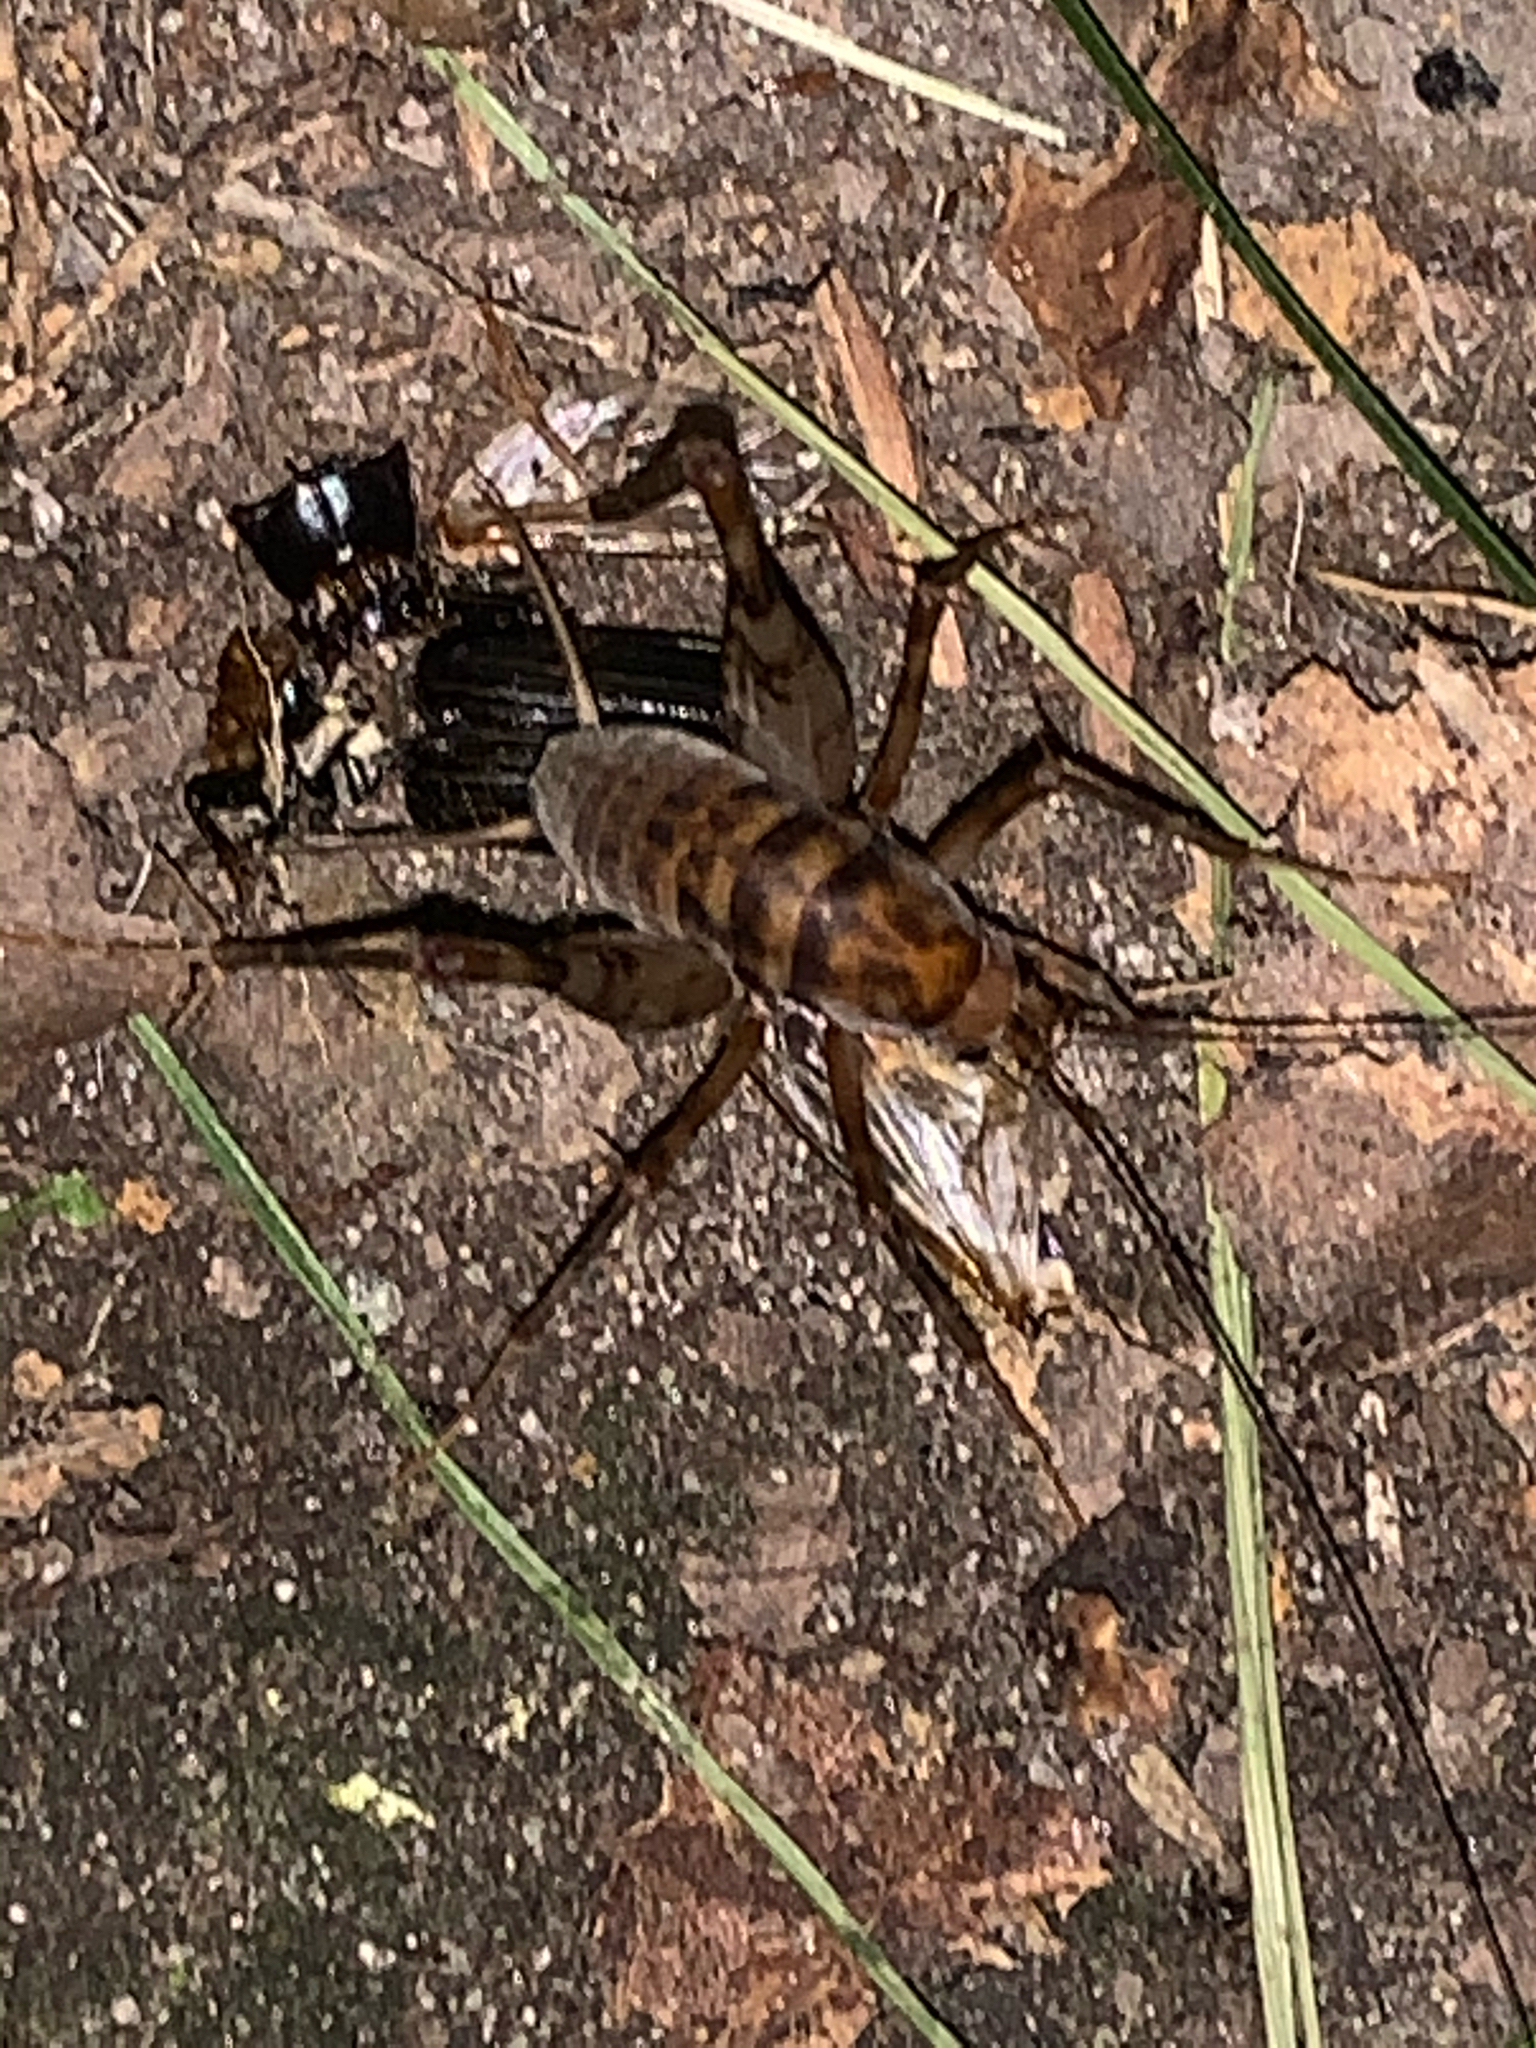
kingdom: Animalia
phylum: Arthropoda
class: Insecta
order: Orthoptera
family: Rhaphidophoridae
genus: Tachycines
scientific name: Tachycines asynamorus
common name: Greenhouse camel cricket
